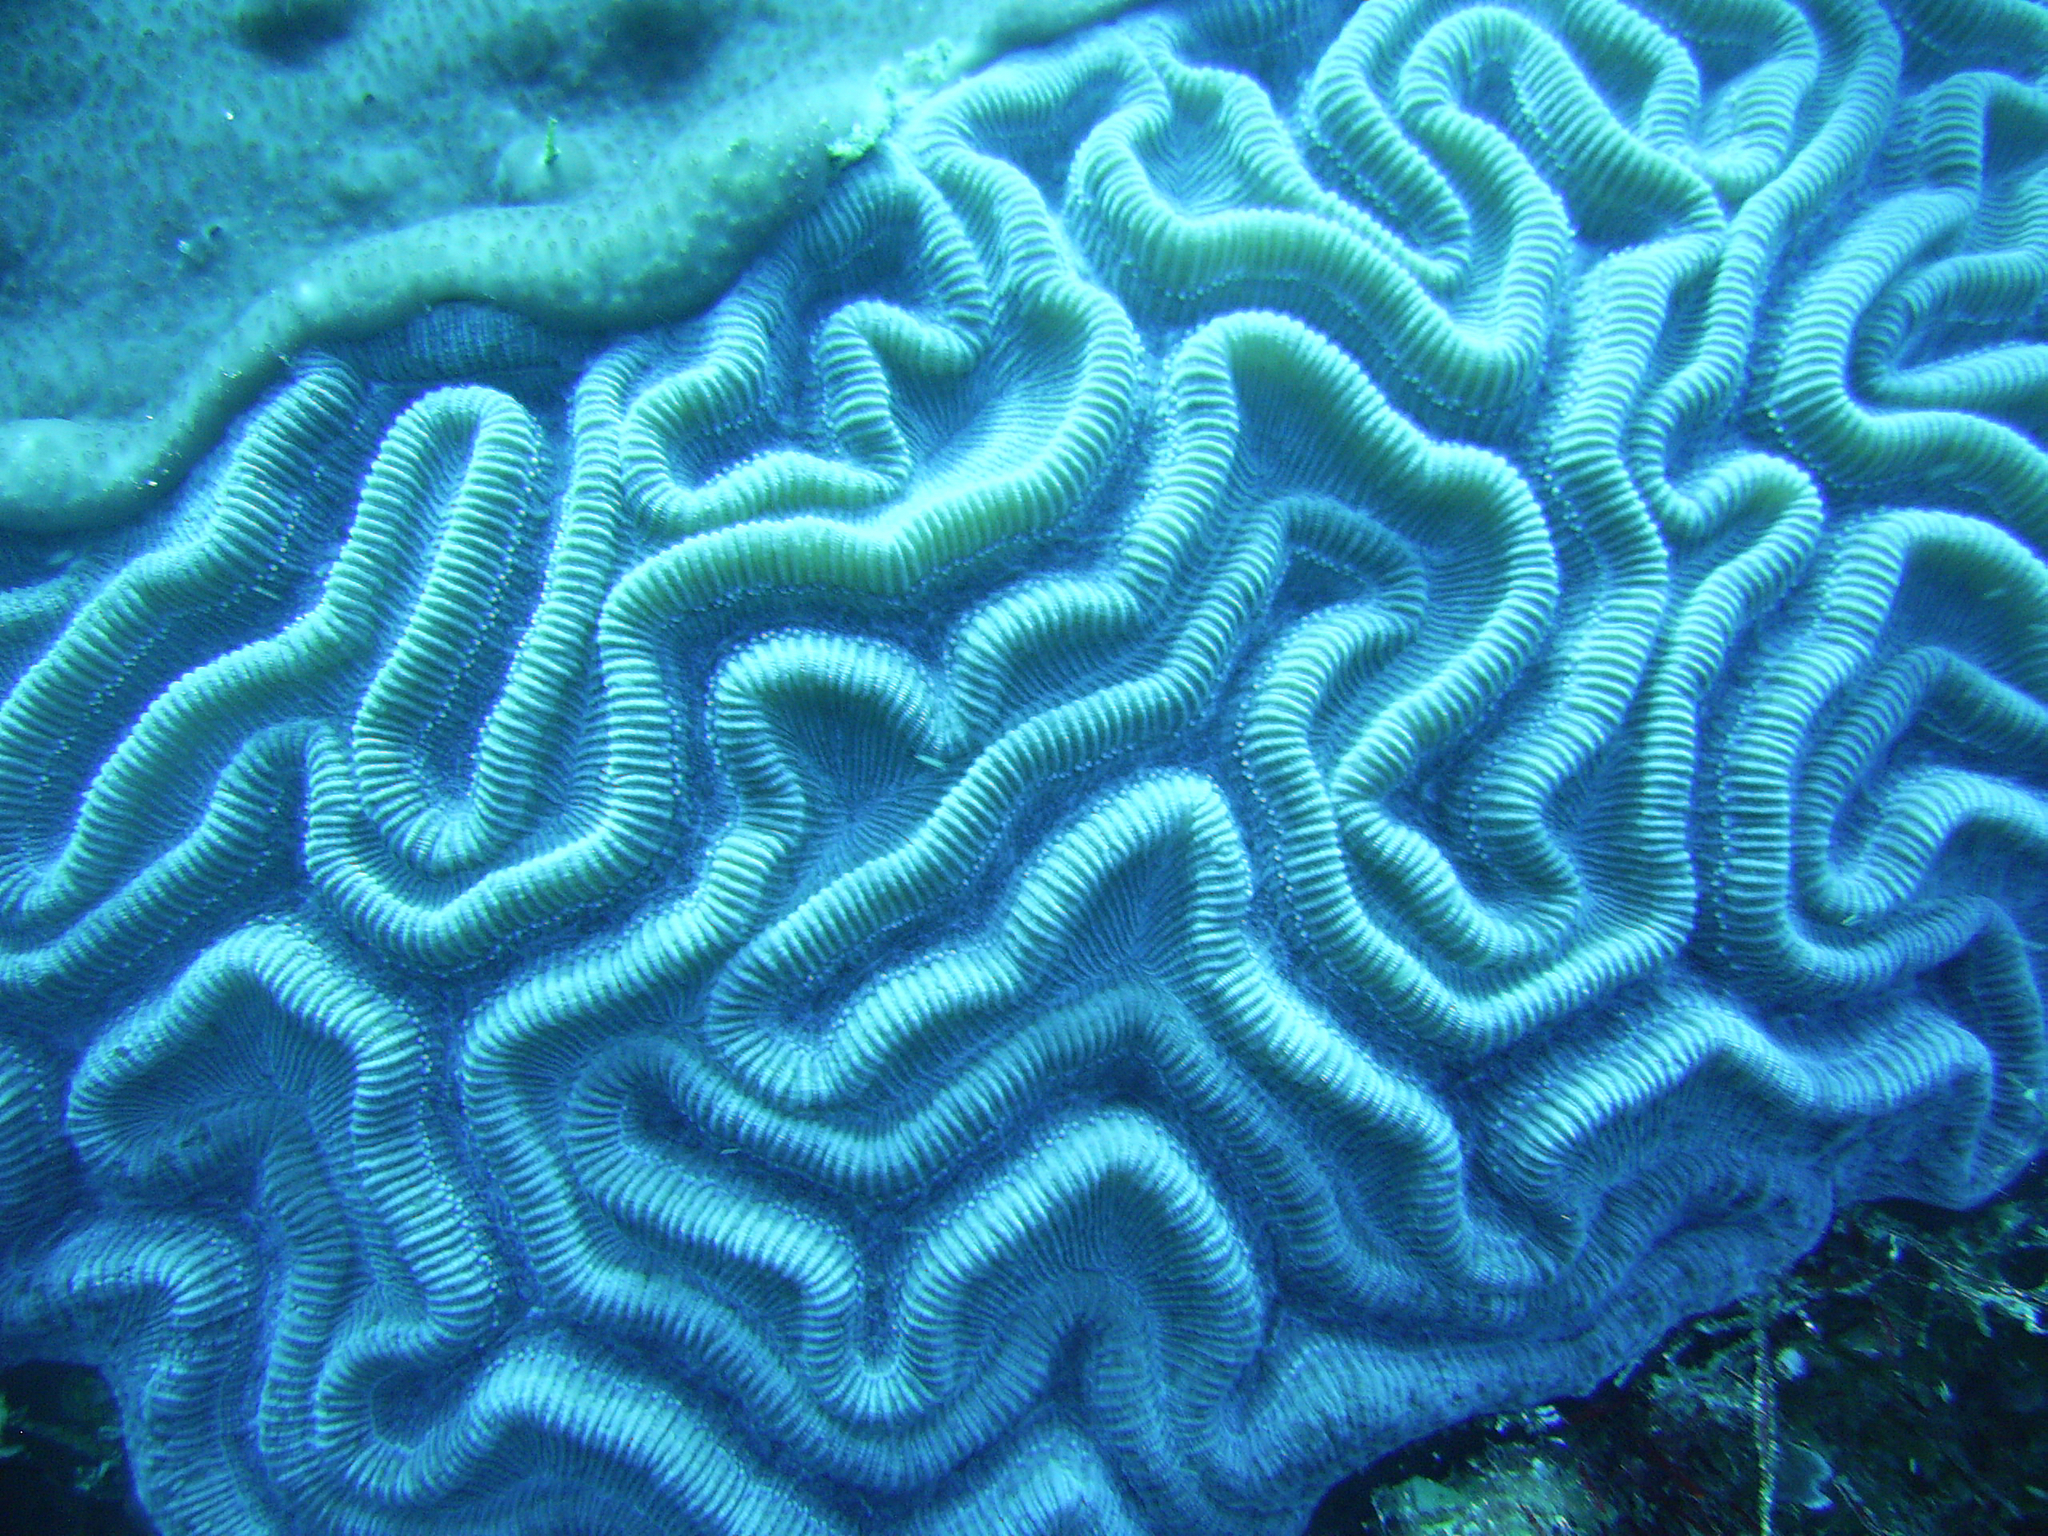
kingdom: Animalia
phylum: Cnidaria
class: Anthozoa
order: Scleractinia
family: Faviidae
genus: Diploria
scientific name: Diploria labyrinthiformis
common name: Grooved brain coral
